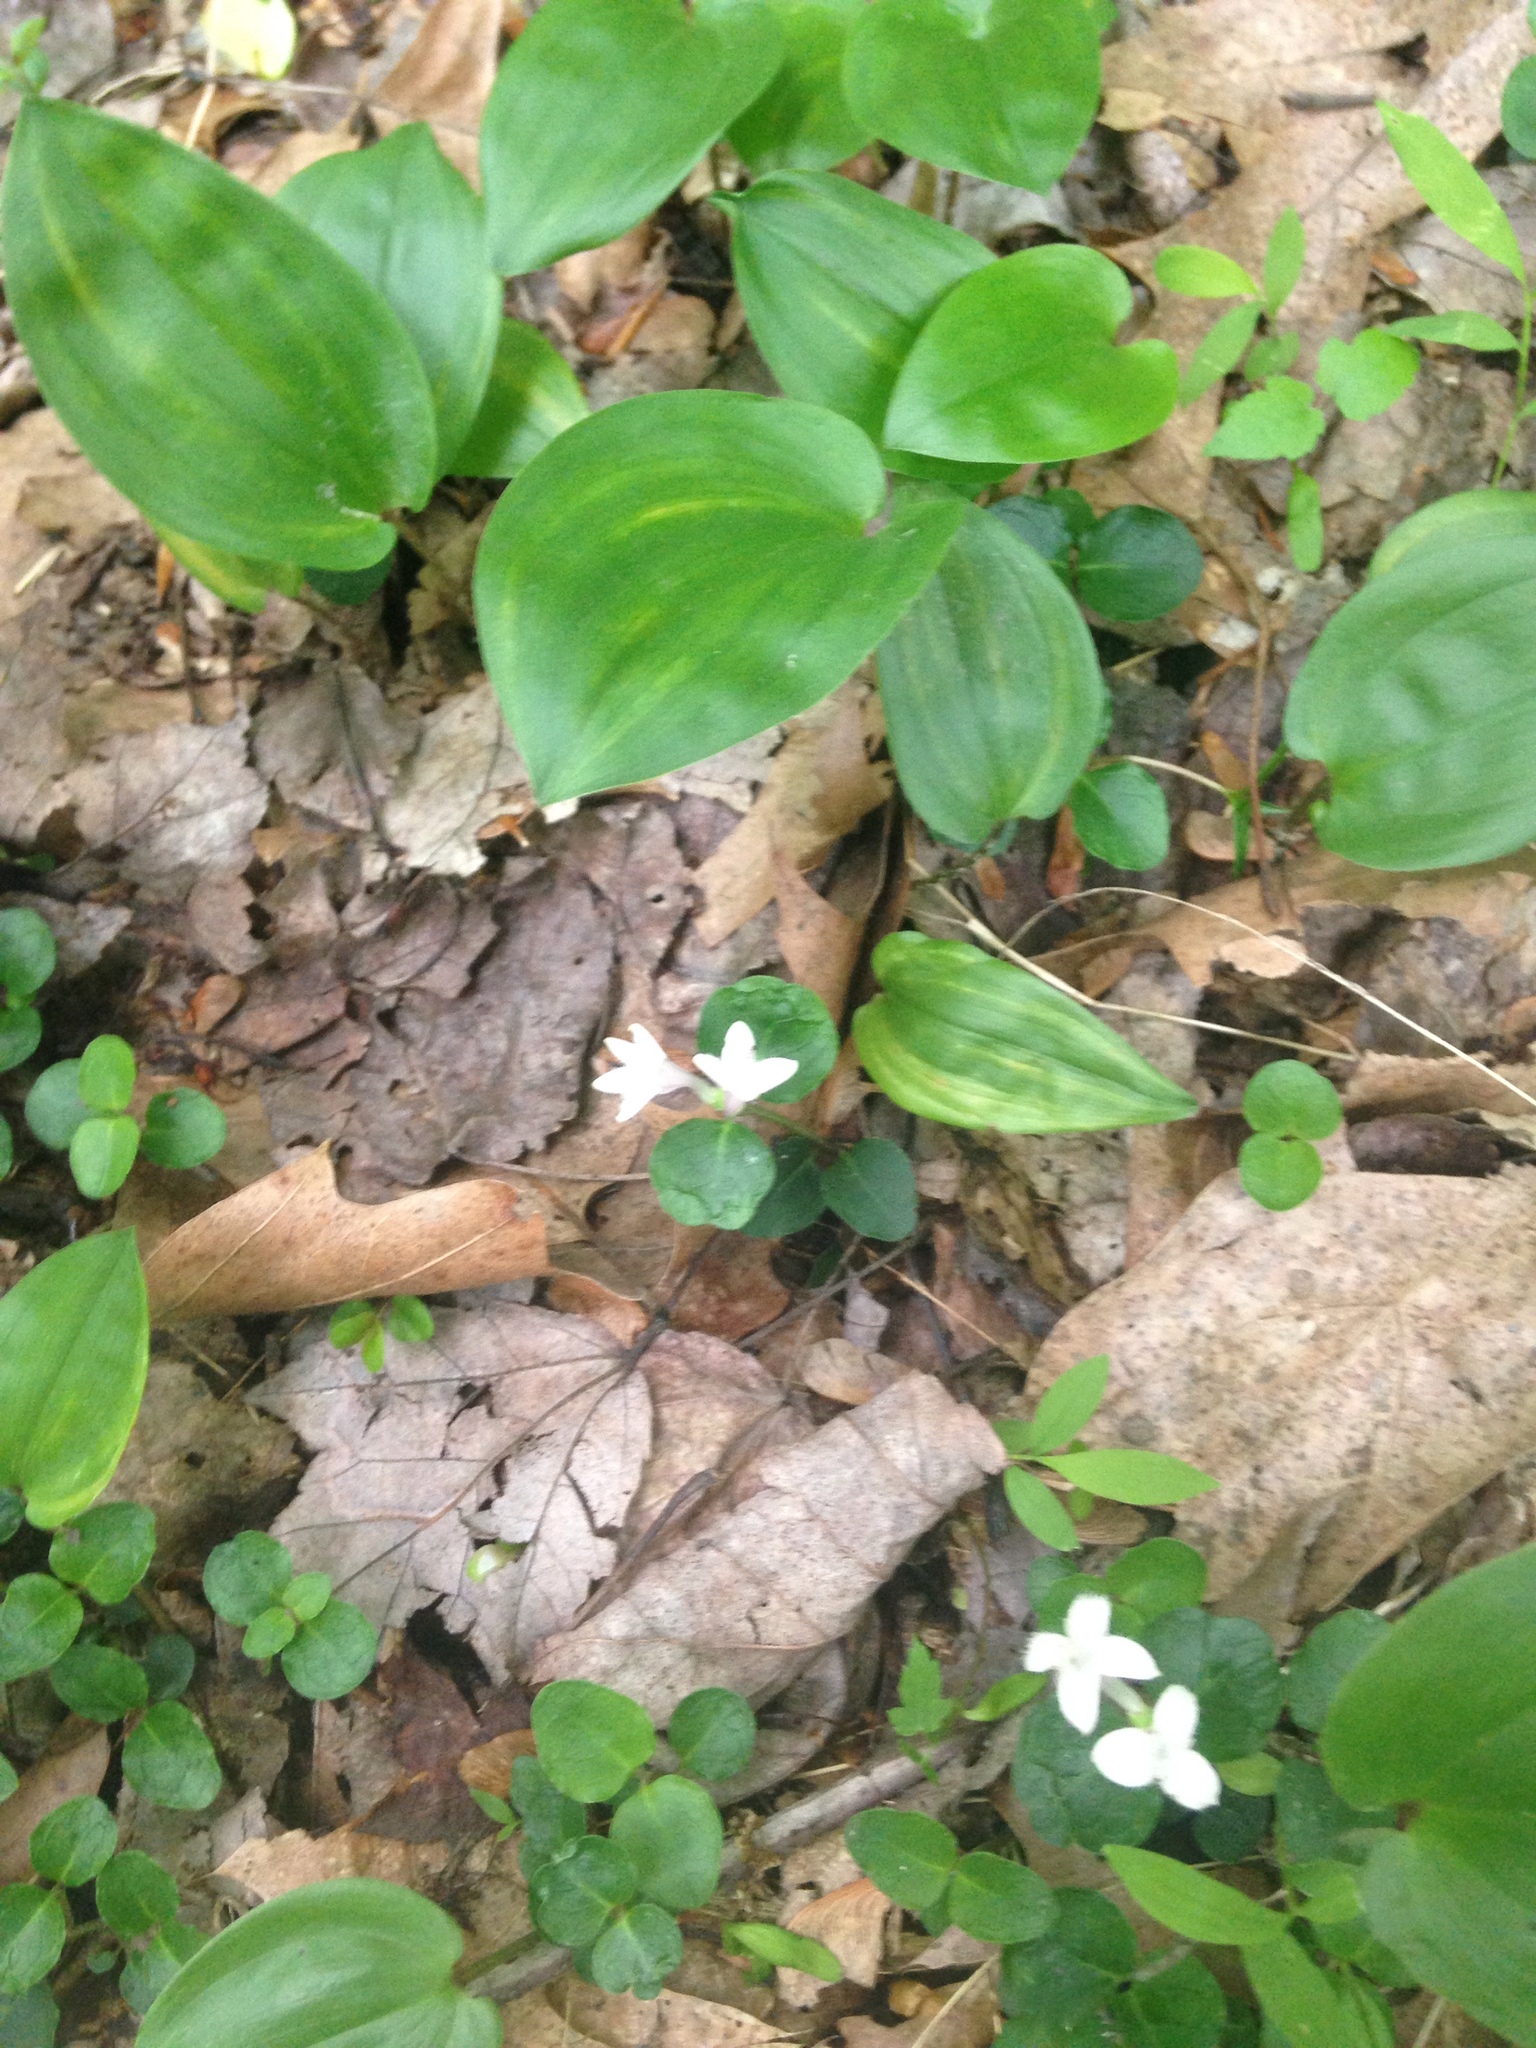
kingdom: Plantae
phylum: Tracheophyta
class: Magnoliopsida
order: Gentianales
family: Rubiaceae
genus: Mitchella
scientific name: Mitchella repens
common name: Partridge-berry
